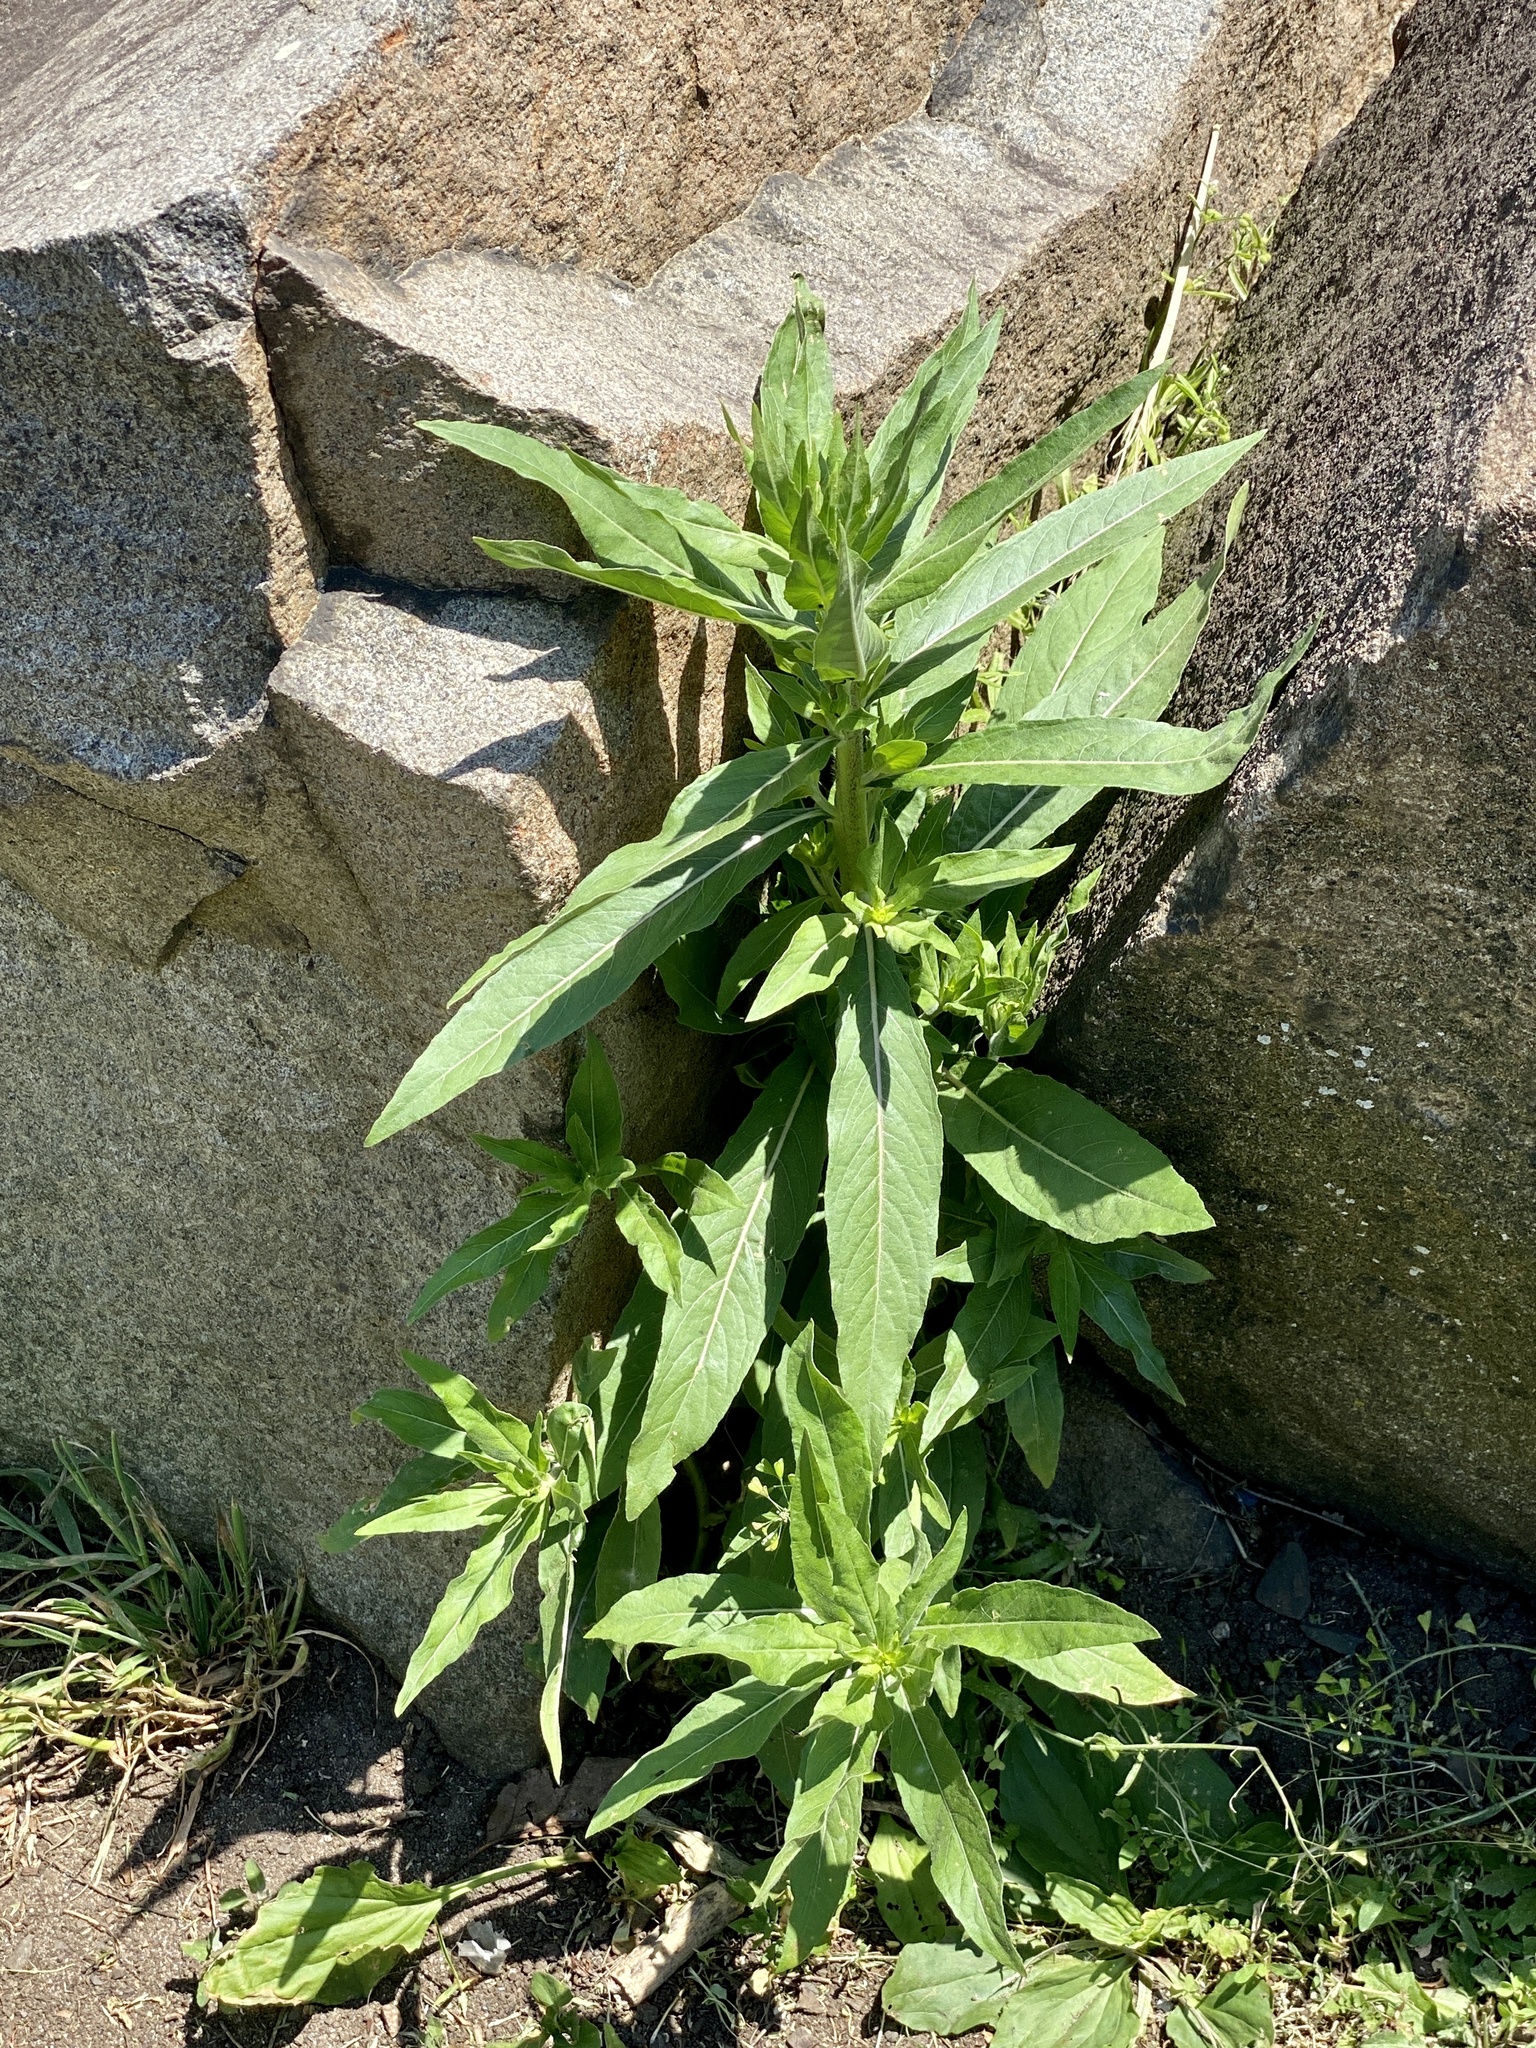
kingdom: Plantae
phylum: Tracheophyta
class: Magnoliopsida
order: Myrtales
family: Onagraceae
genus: Oenothera
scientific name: Oenothera biennis
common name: Common evening-primrose
